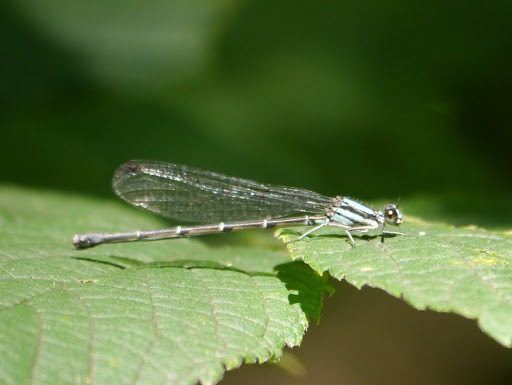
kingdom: Animalia
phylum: Arthropoda
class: Insecta
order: Odonata
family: Coenagrionidae
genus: Argia
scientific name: Argia tibialis
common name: Blue-tipped dancer
